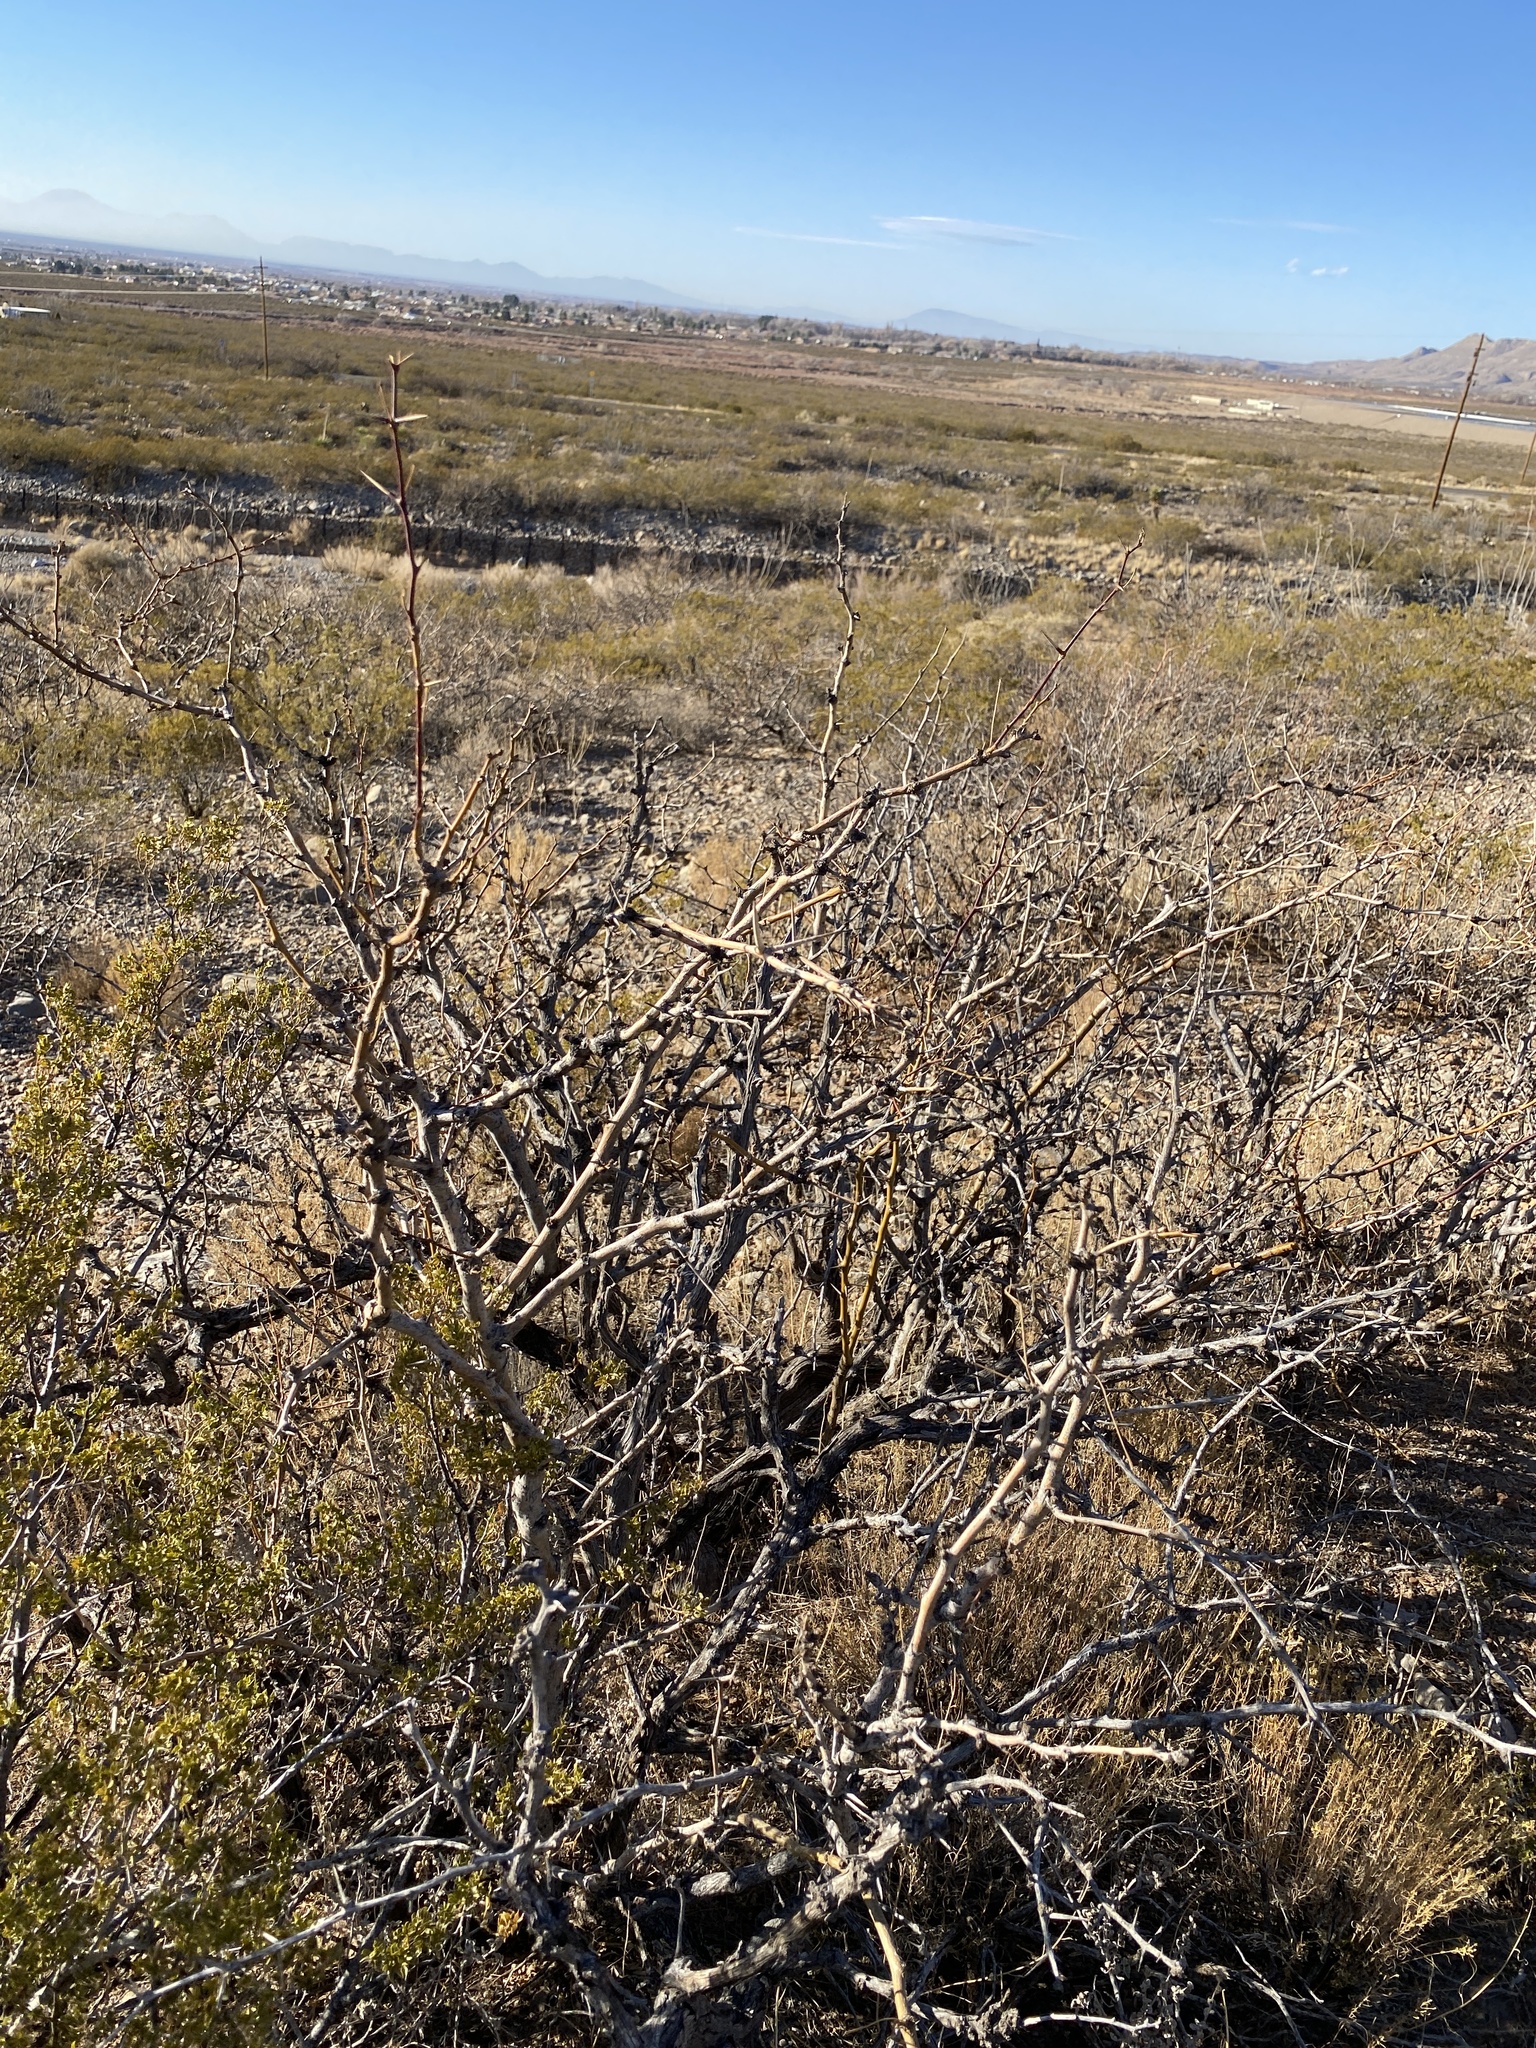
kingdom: Plantae
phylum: Tracheophyta
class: Magnoliopsida
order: Fabales
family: Fabaceae
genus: Prosopis
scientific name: Prosopis glandulosa
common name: Honey mesquite
